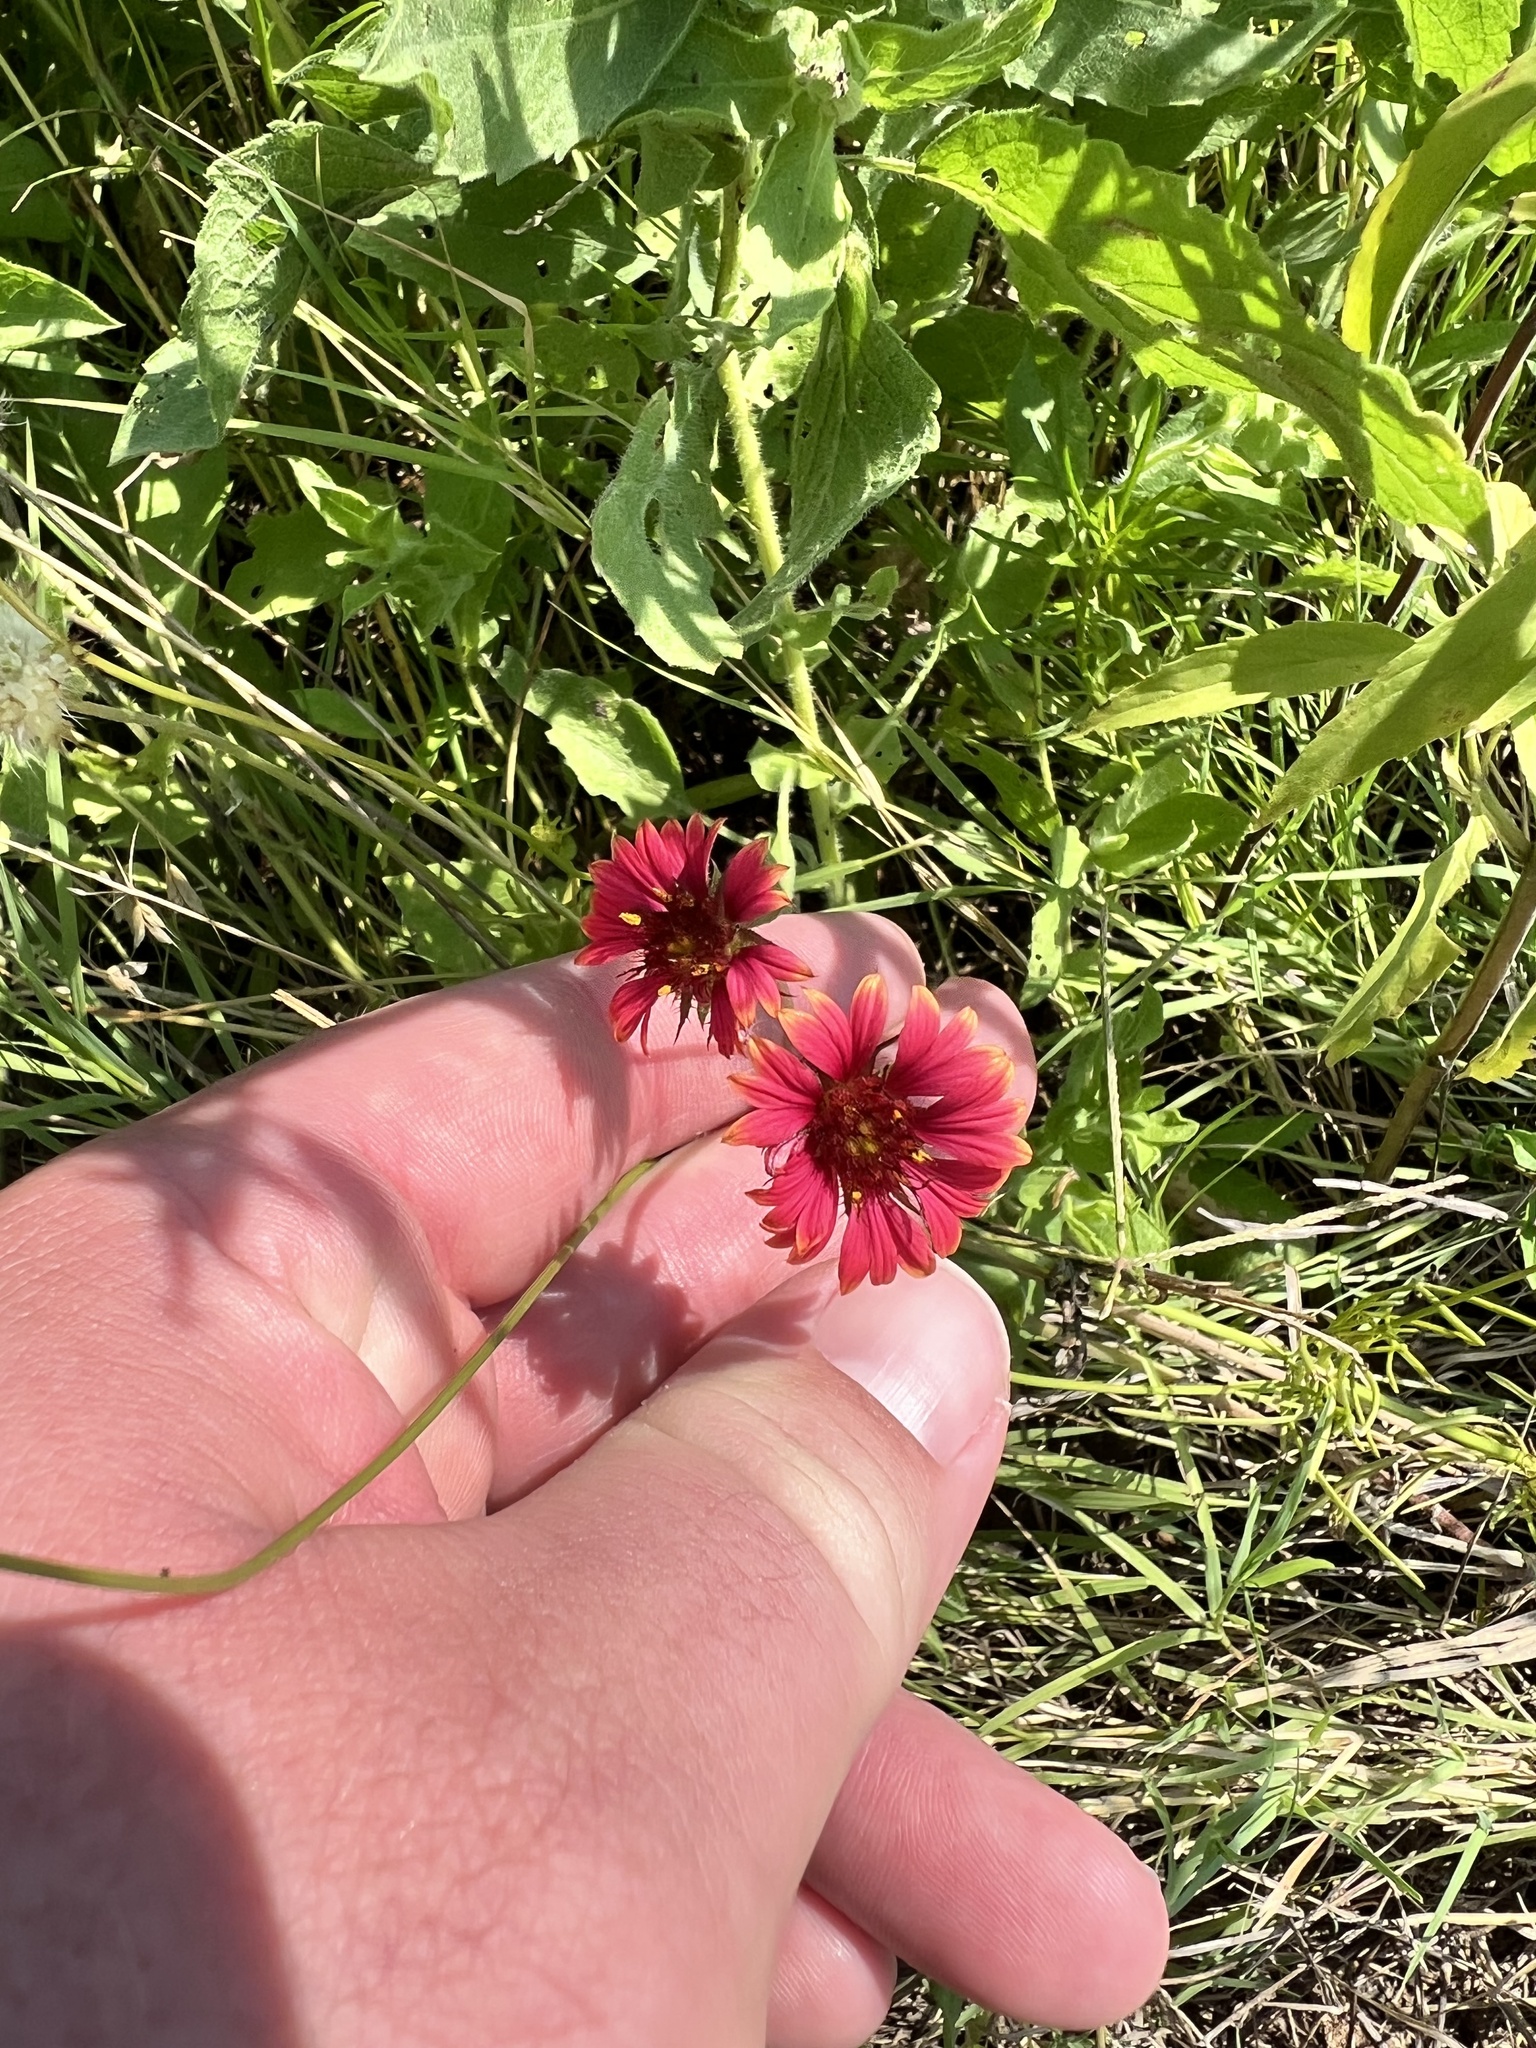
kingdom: Plantae
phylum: Tracheophyta
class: Magnoliopsida
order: Asterales
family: Asteraceae
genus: Gaillardia
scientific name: Gaillardia amblyodon
